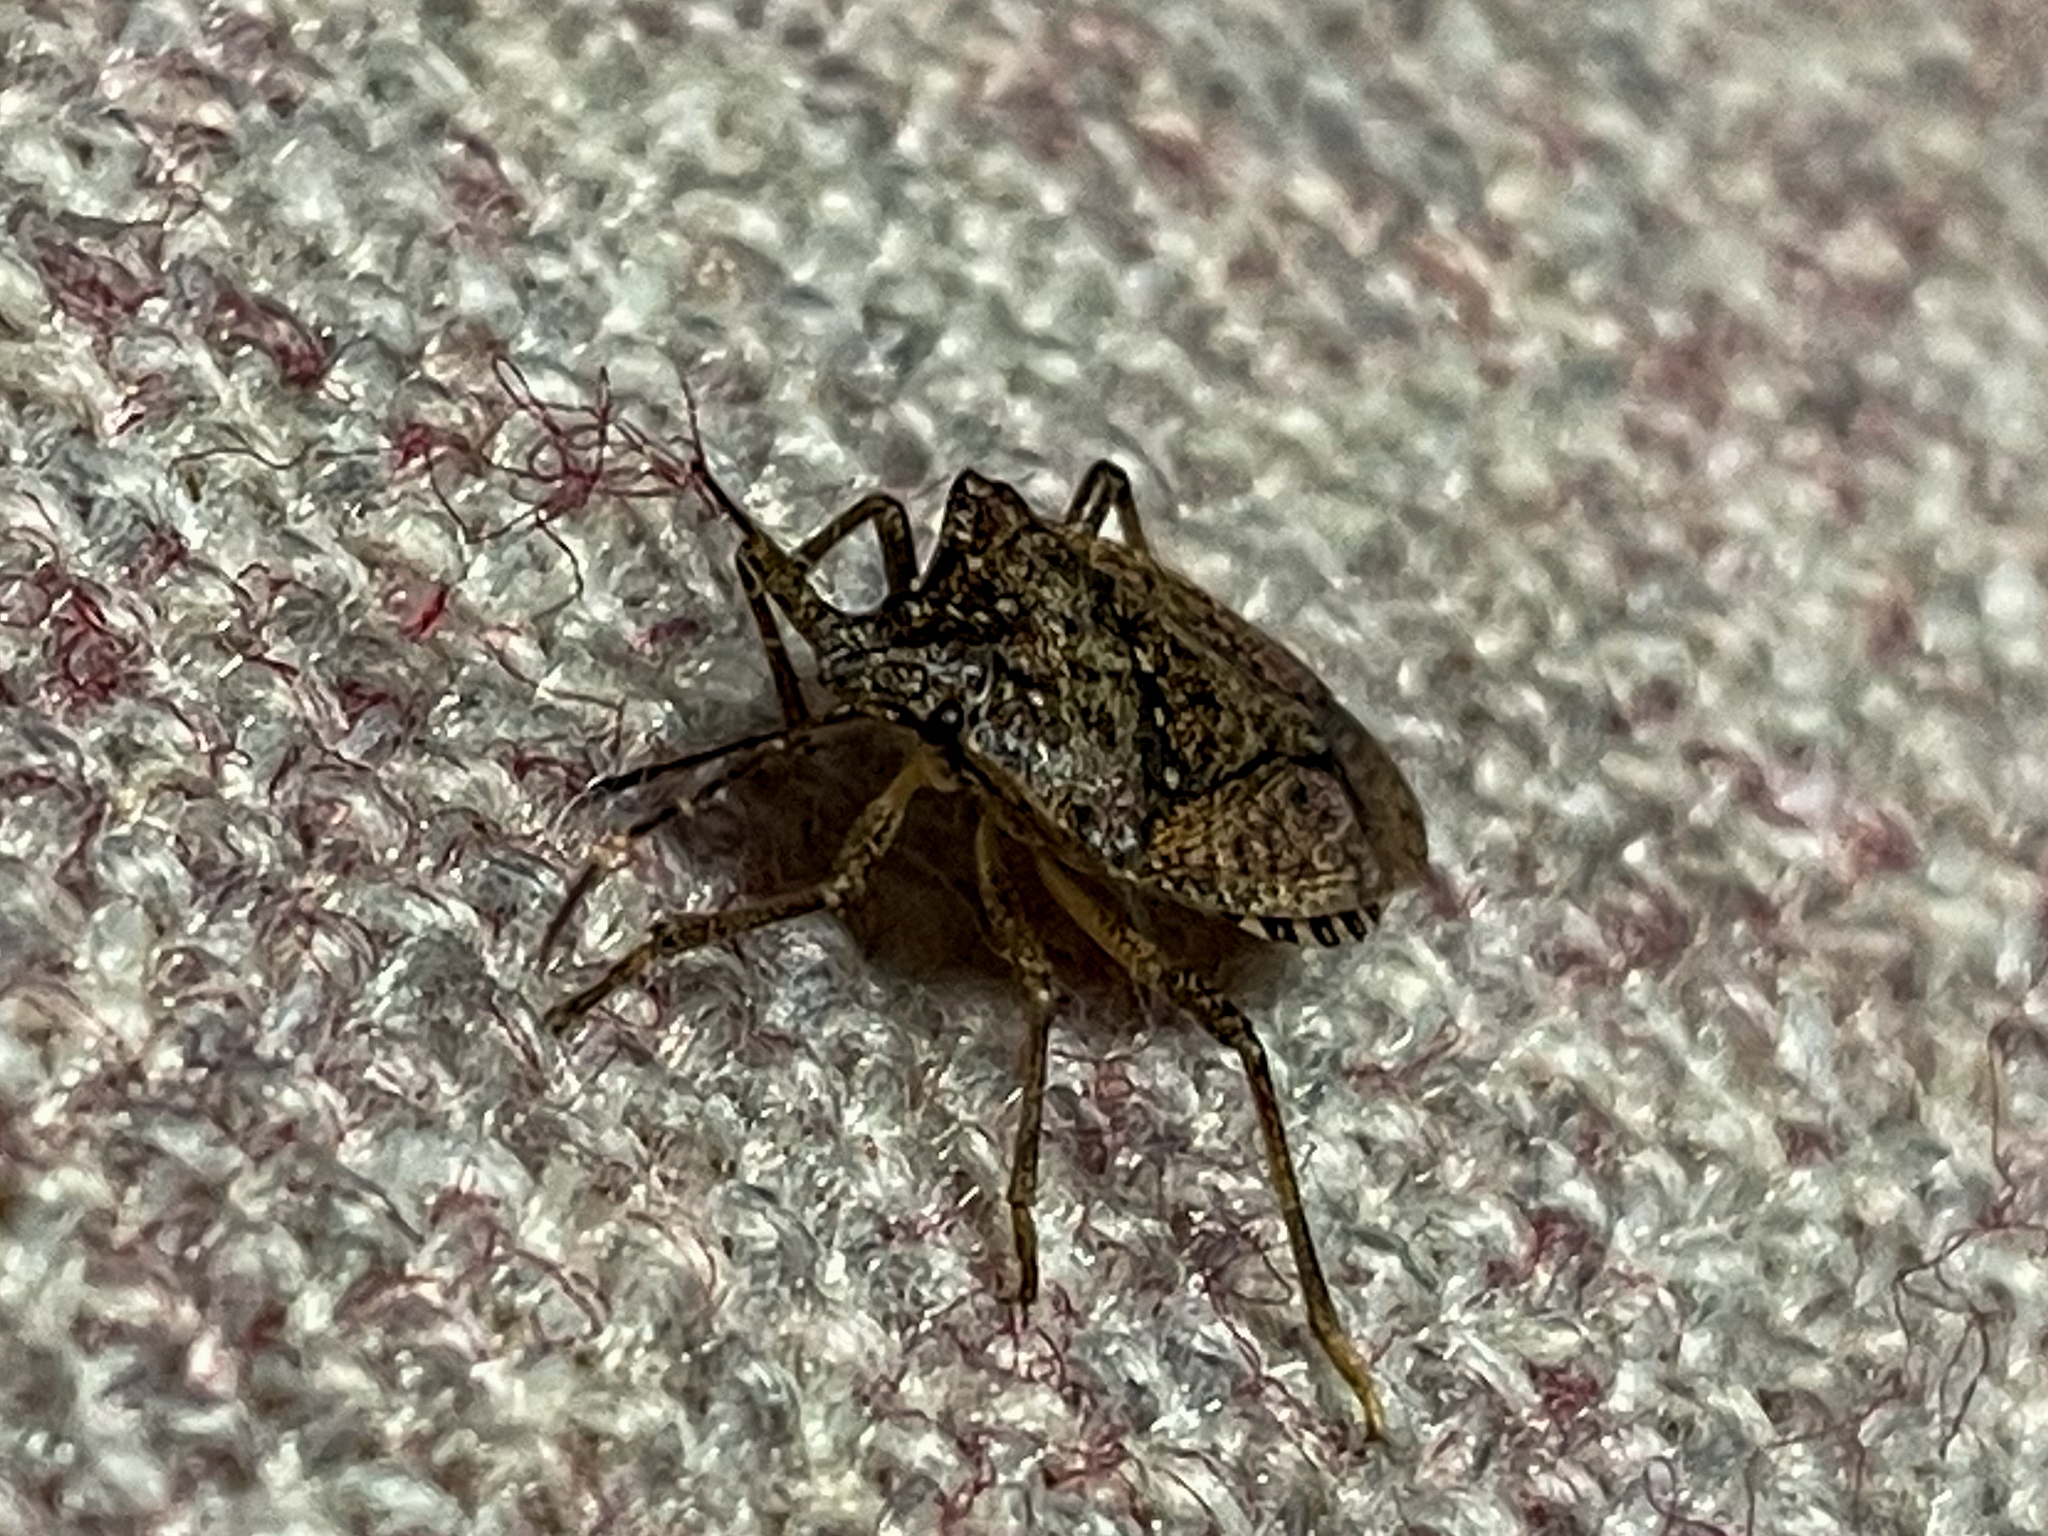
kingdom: Animalia
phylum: Arthropoda
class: Insecta
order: Hemiptera
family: Pentatomidae
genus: Halyomorpha
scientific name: Halyomorpha halys
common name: Brown marmorated stink bug
